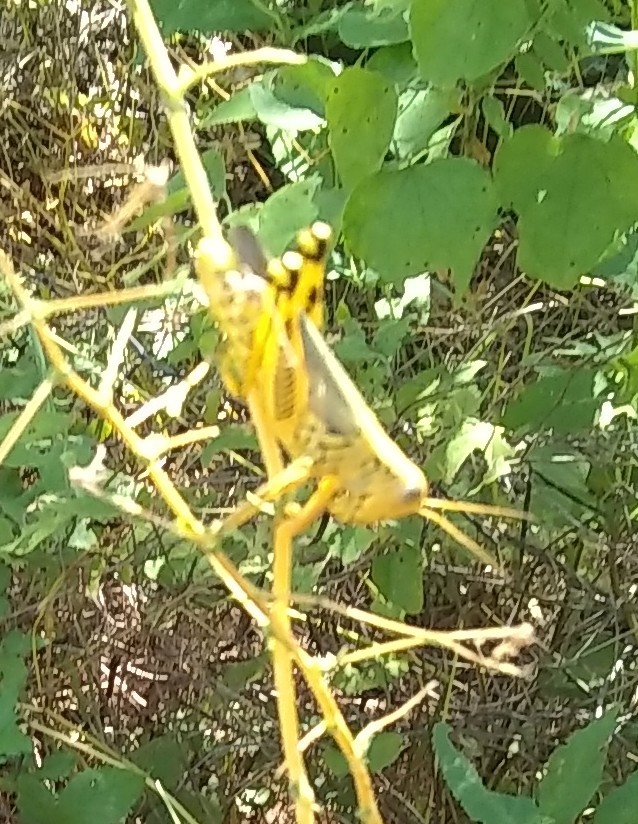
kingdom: Animalia
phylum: Arthropoda
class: Insecta
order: Orthoptera
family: Acrididae
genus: Melanoplus
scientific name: Melanoplus differentialis
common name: Differential grasshopper
